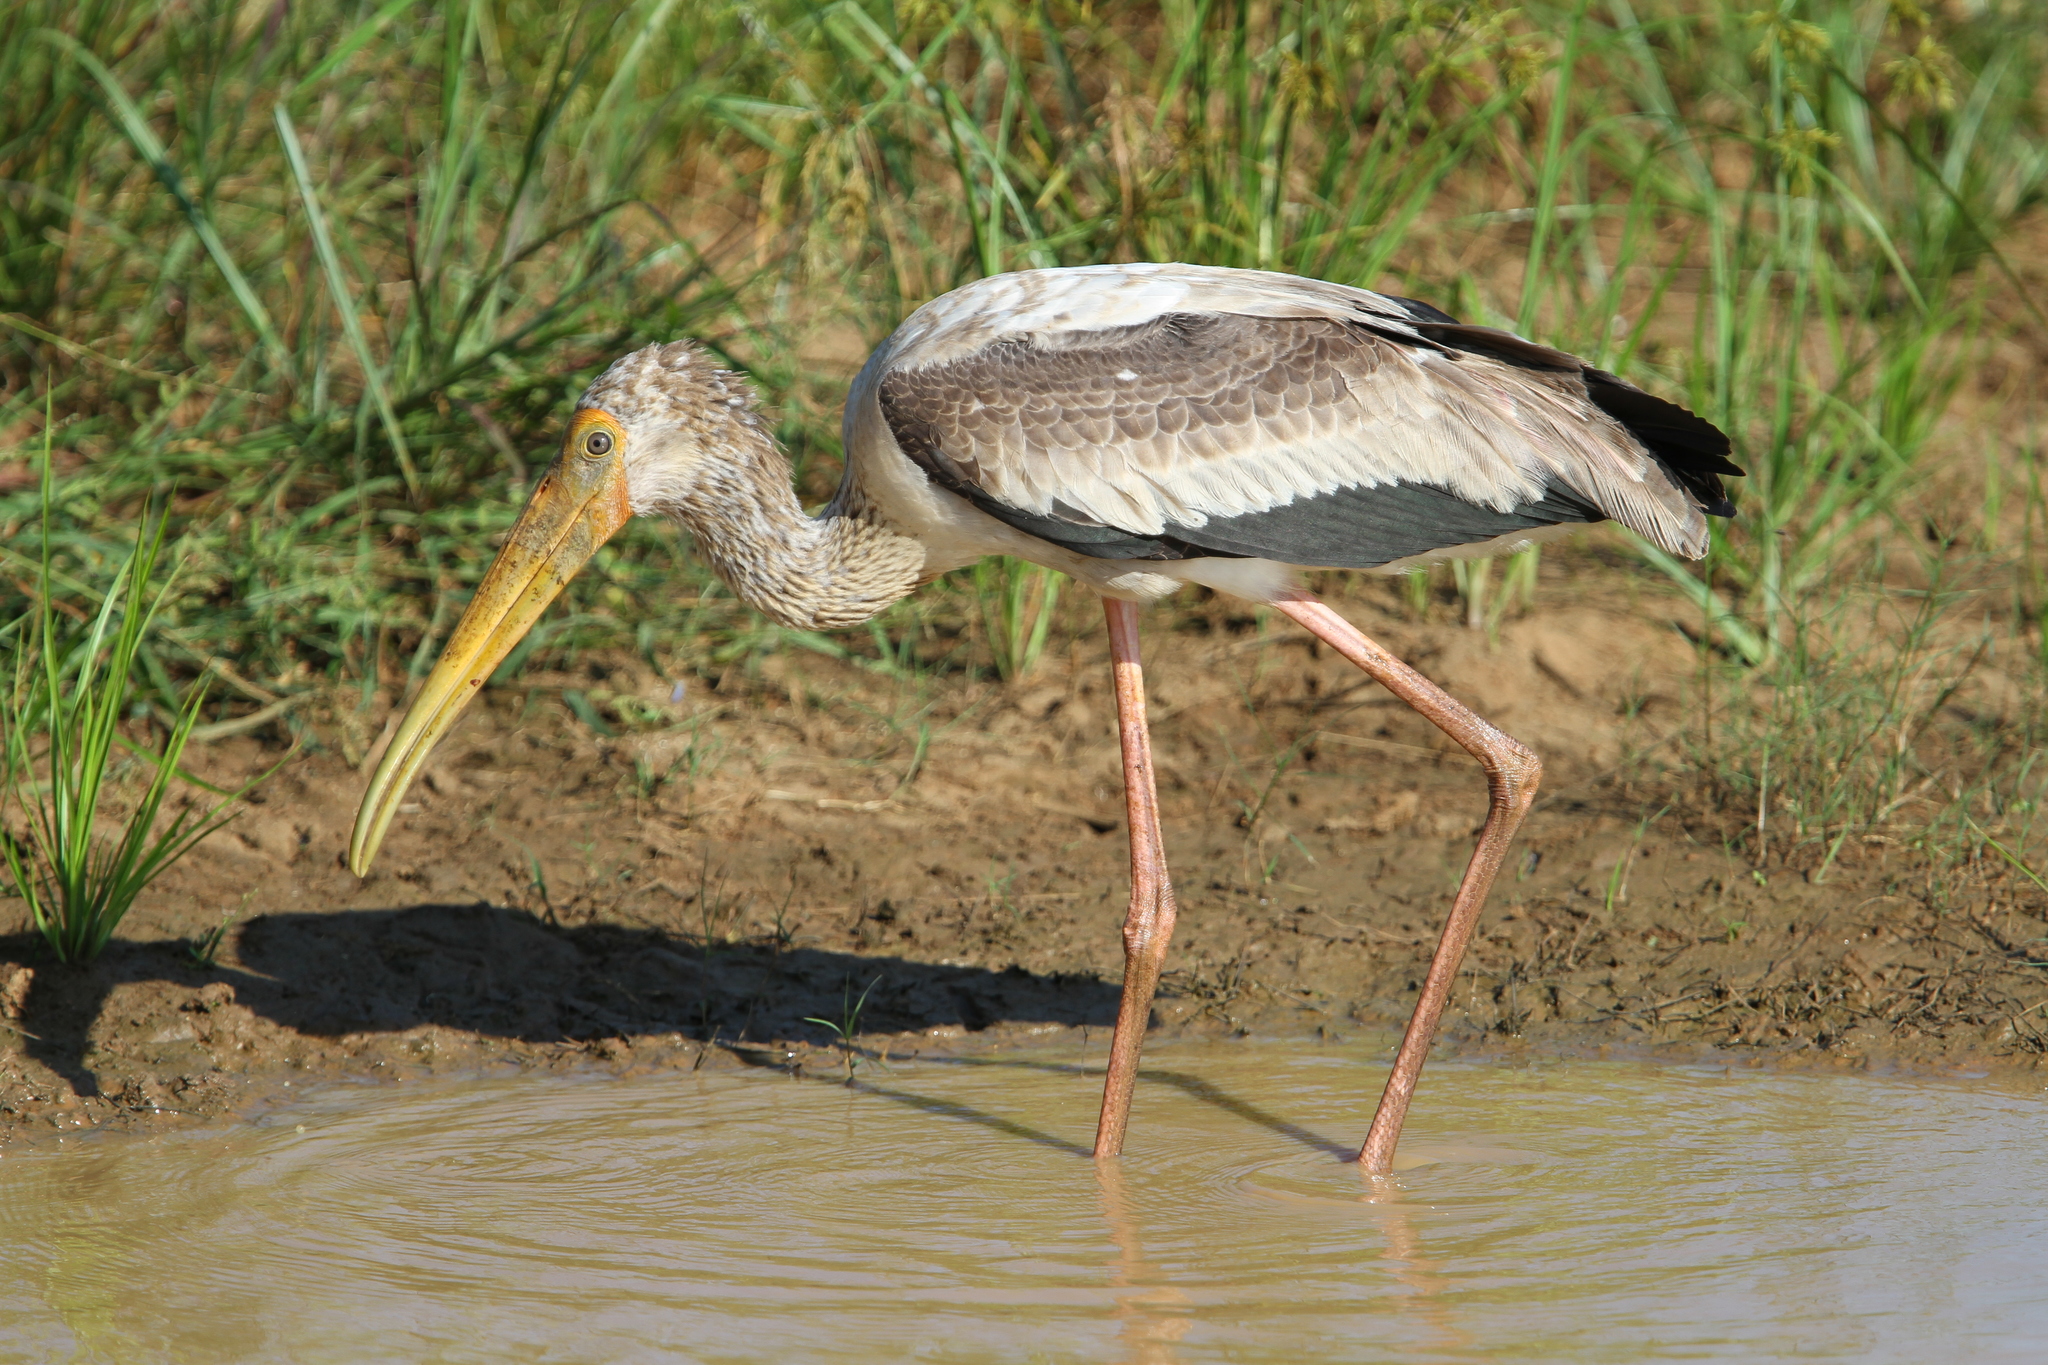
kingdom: Animalia
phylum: Chordata
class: Aves
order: Ciconiiformes
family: Ciconiidae
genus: Mycteria
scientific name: Mycteria leucocephala
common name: Painted stork
